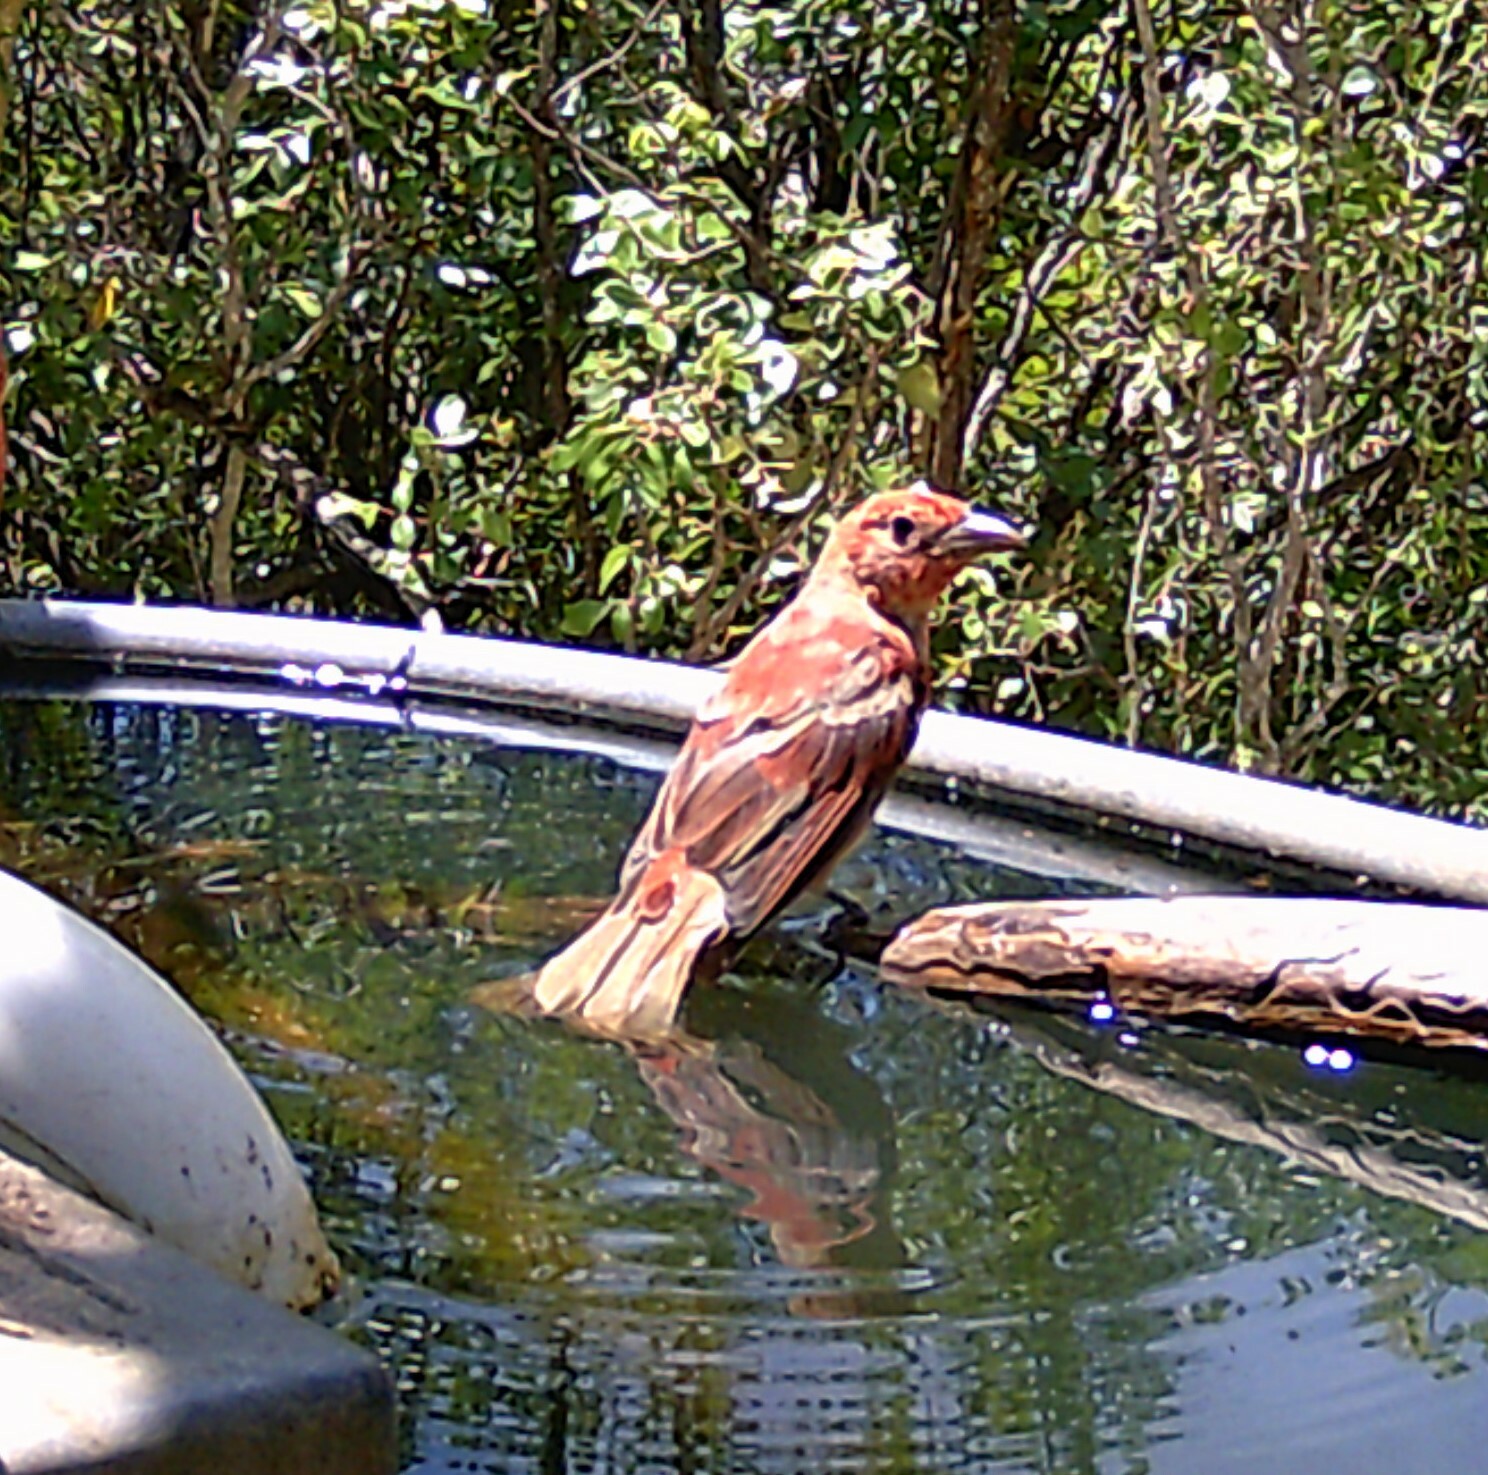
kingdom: Animalia
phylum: Chordata
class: Aves
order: Passeriformes
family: Cardinalidae
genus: Piranga
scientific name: Piranga rubra
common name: Summer tanager
